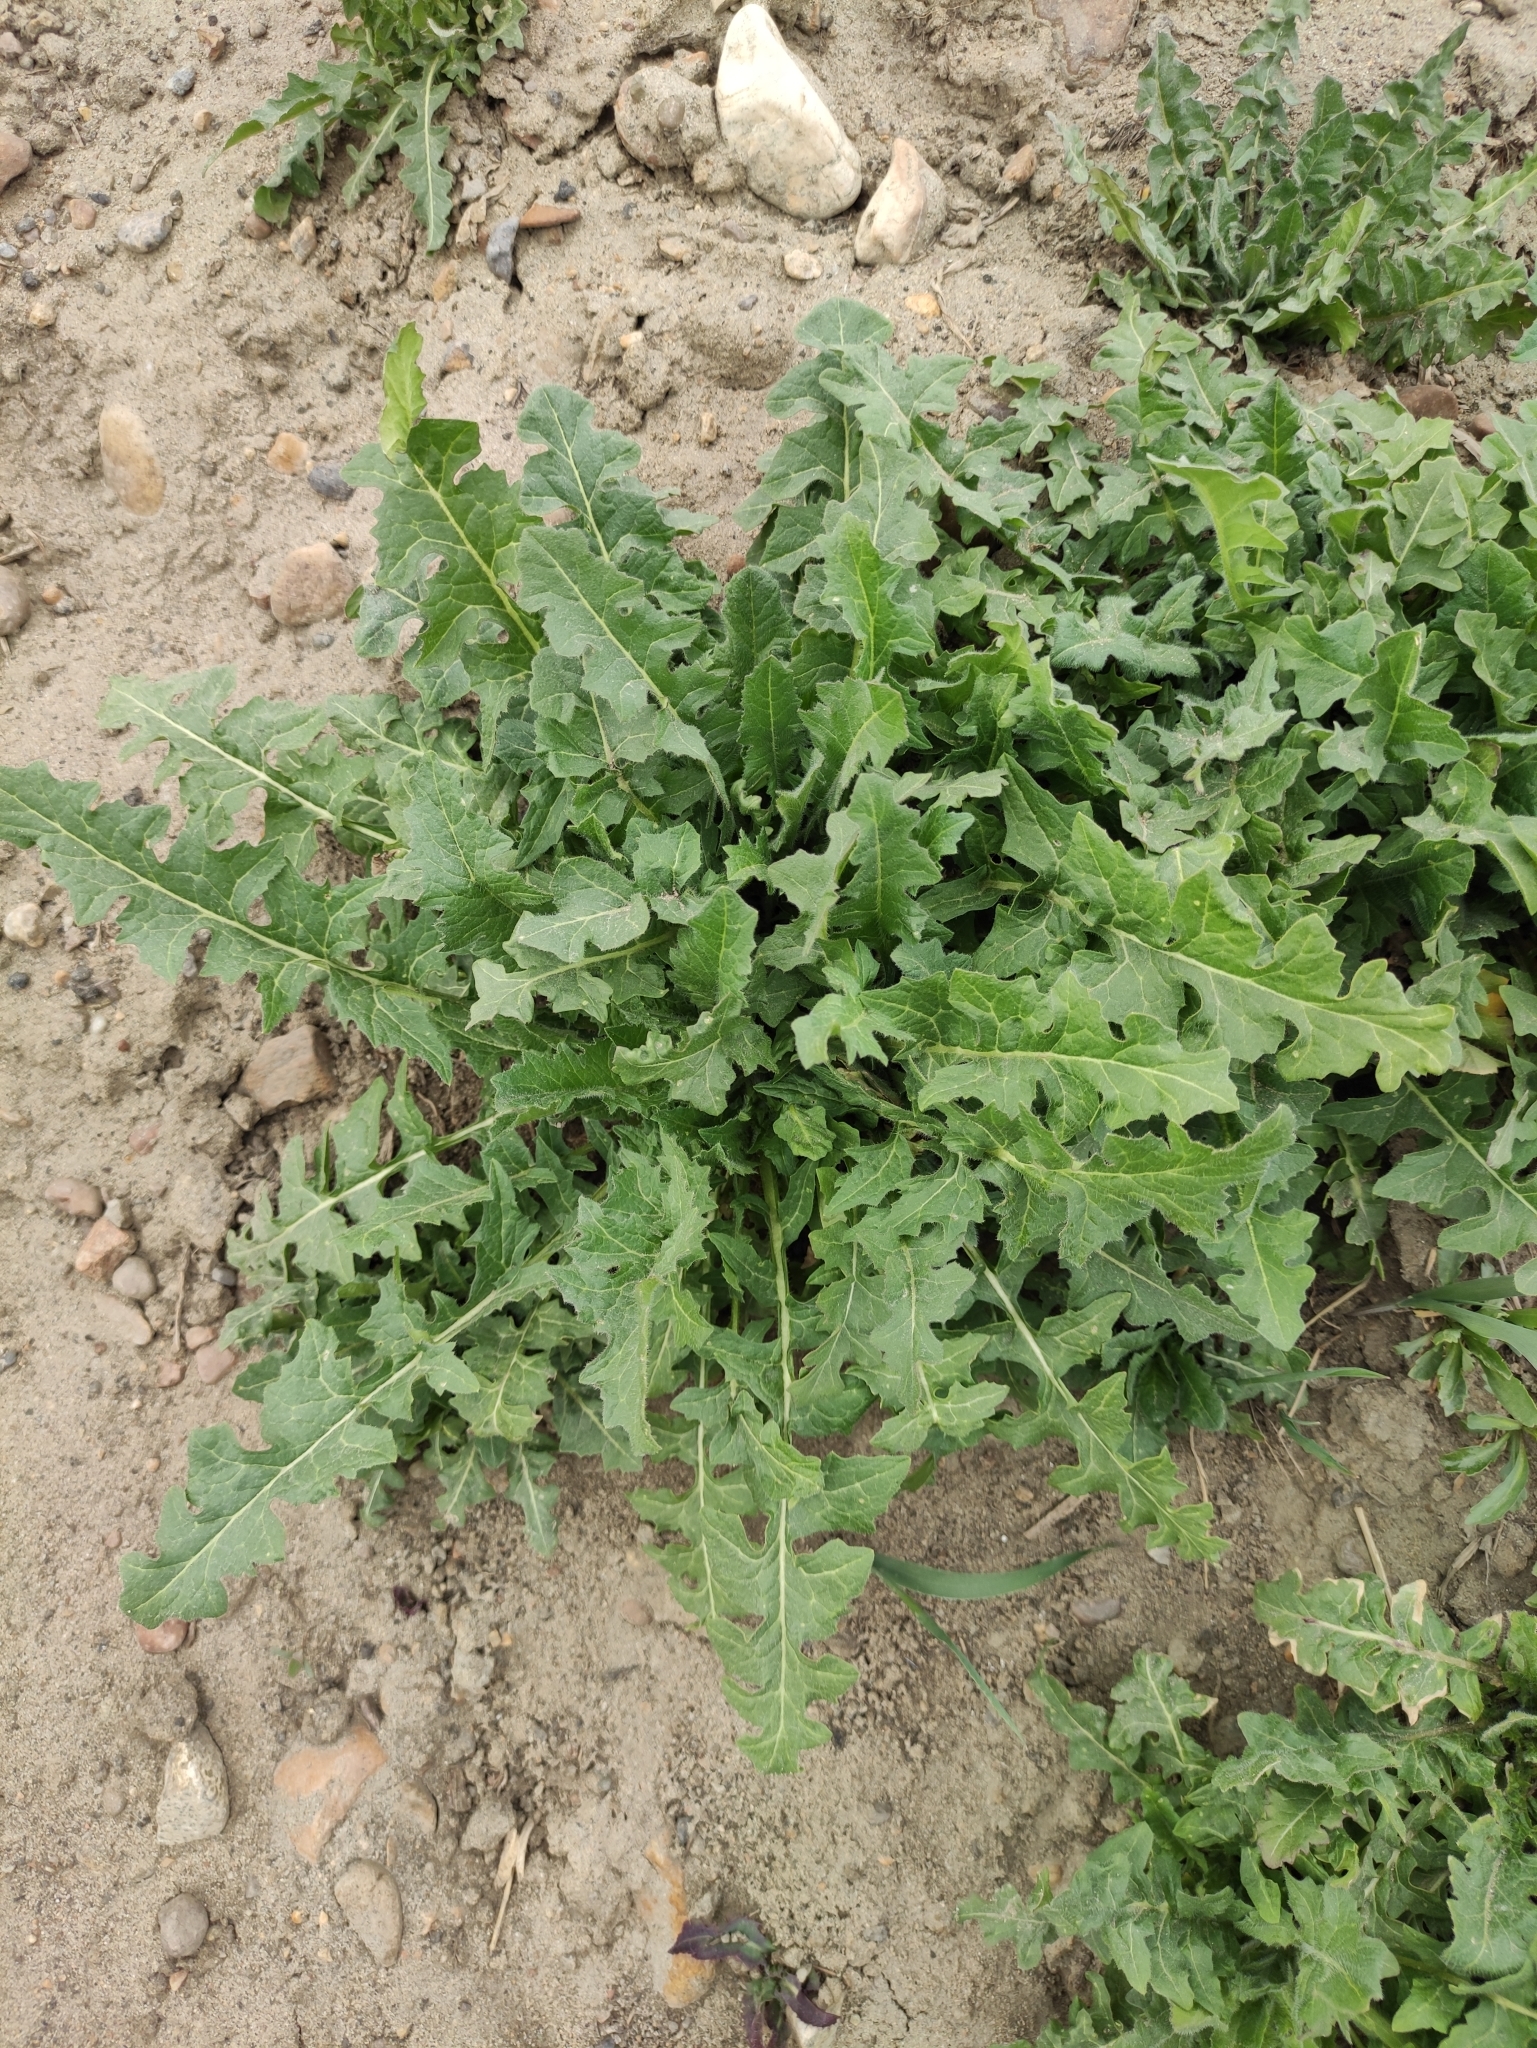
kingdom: Plantae
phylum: Tracheophyta
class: Magnoliopsida
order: Brassicales
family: Brassicaceae
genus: Sisymbrium
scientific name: Sisymbrium loeselii
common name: False london-rocket
